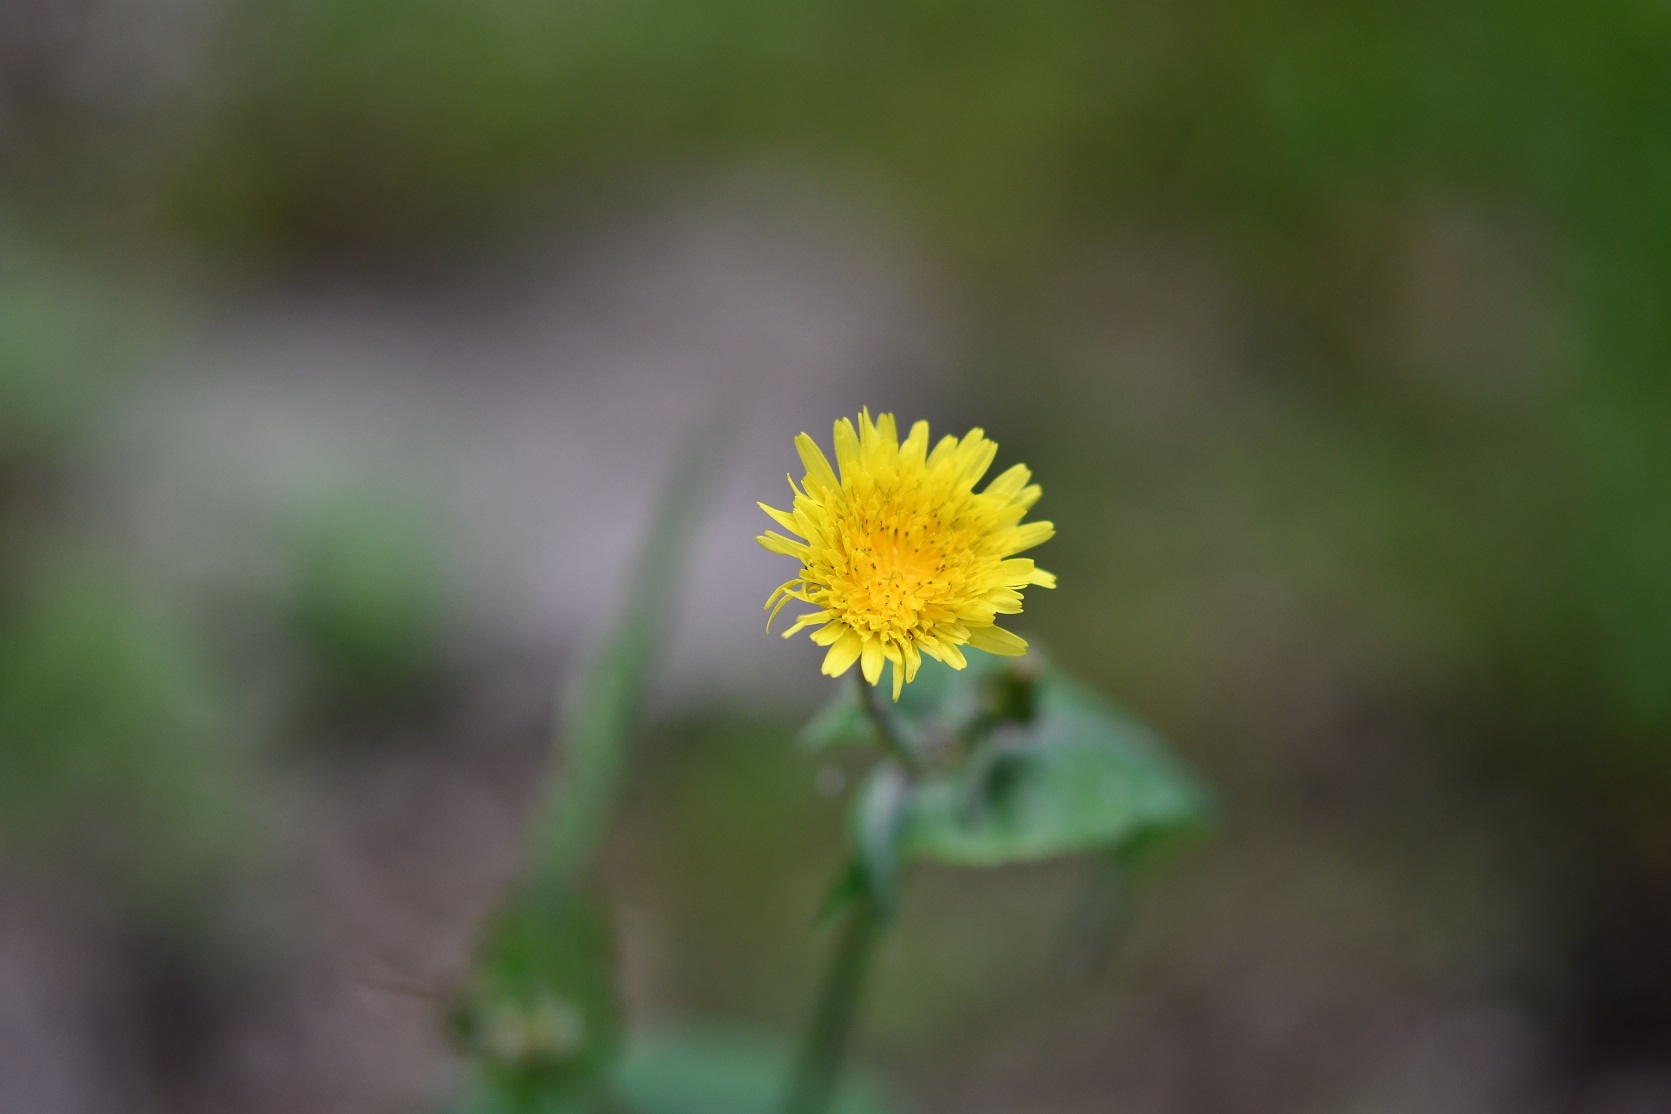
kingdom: Plantae
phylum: Tracheophyta
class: Magnoliopsida
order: Asterales
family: Asteraceae
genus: Sonchus
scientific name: Sonchus oleraceus
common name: Common sowthistle
